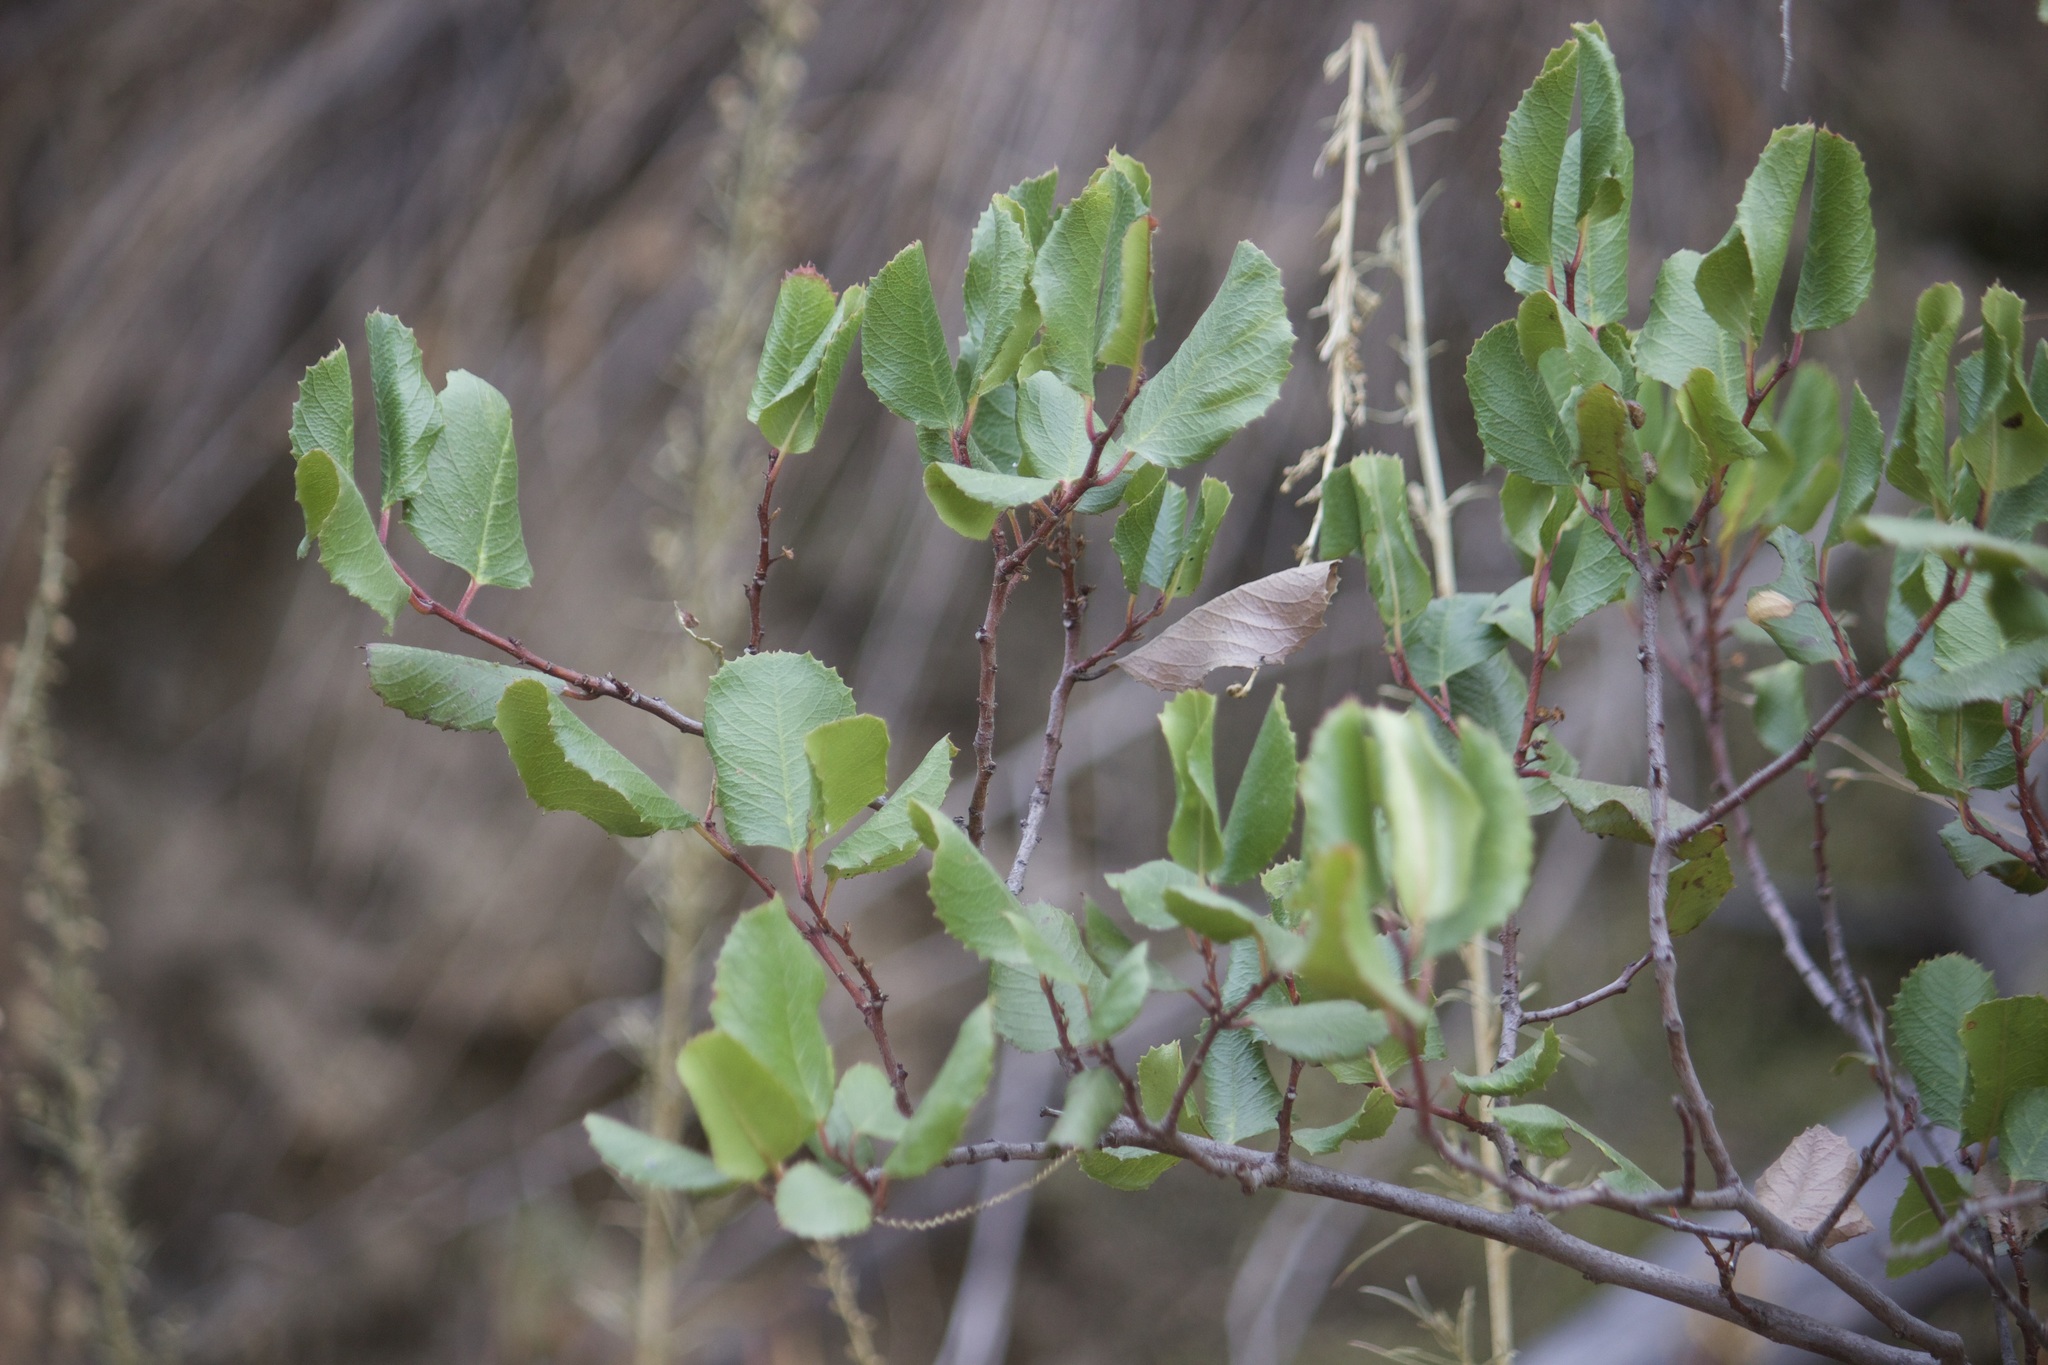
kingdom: Plantae
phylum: Tracheophyta
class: Magnoliopsida
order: Rosales
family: Rhamnaceae
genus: Endotropis
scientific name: Endotropis crocea
